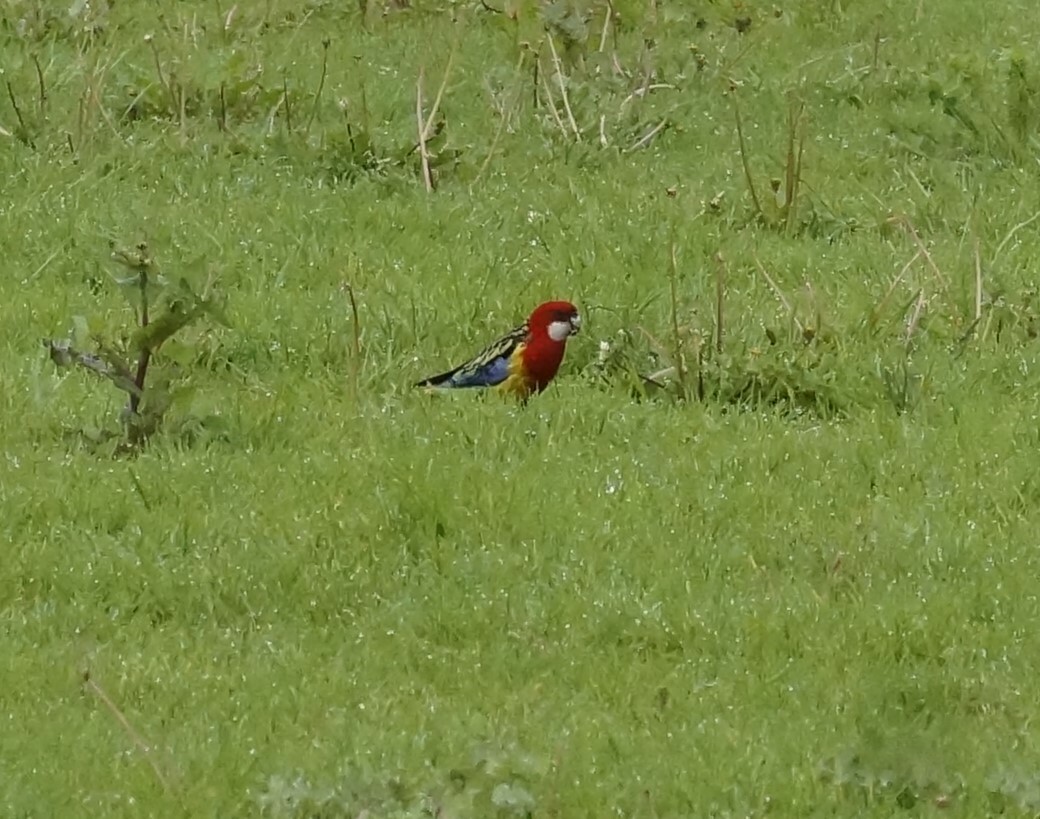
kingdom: Animalia
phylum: Chordata
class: Aves
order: Psittaciformes
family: Psittacidae
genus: Platycercus
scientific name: Platycercus eximius
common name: Eastern rosella
